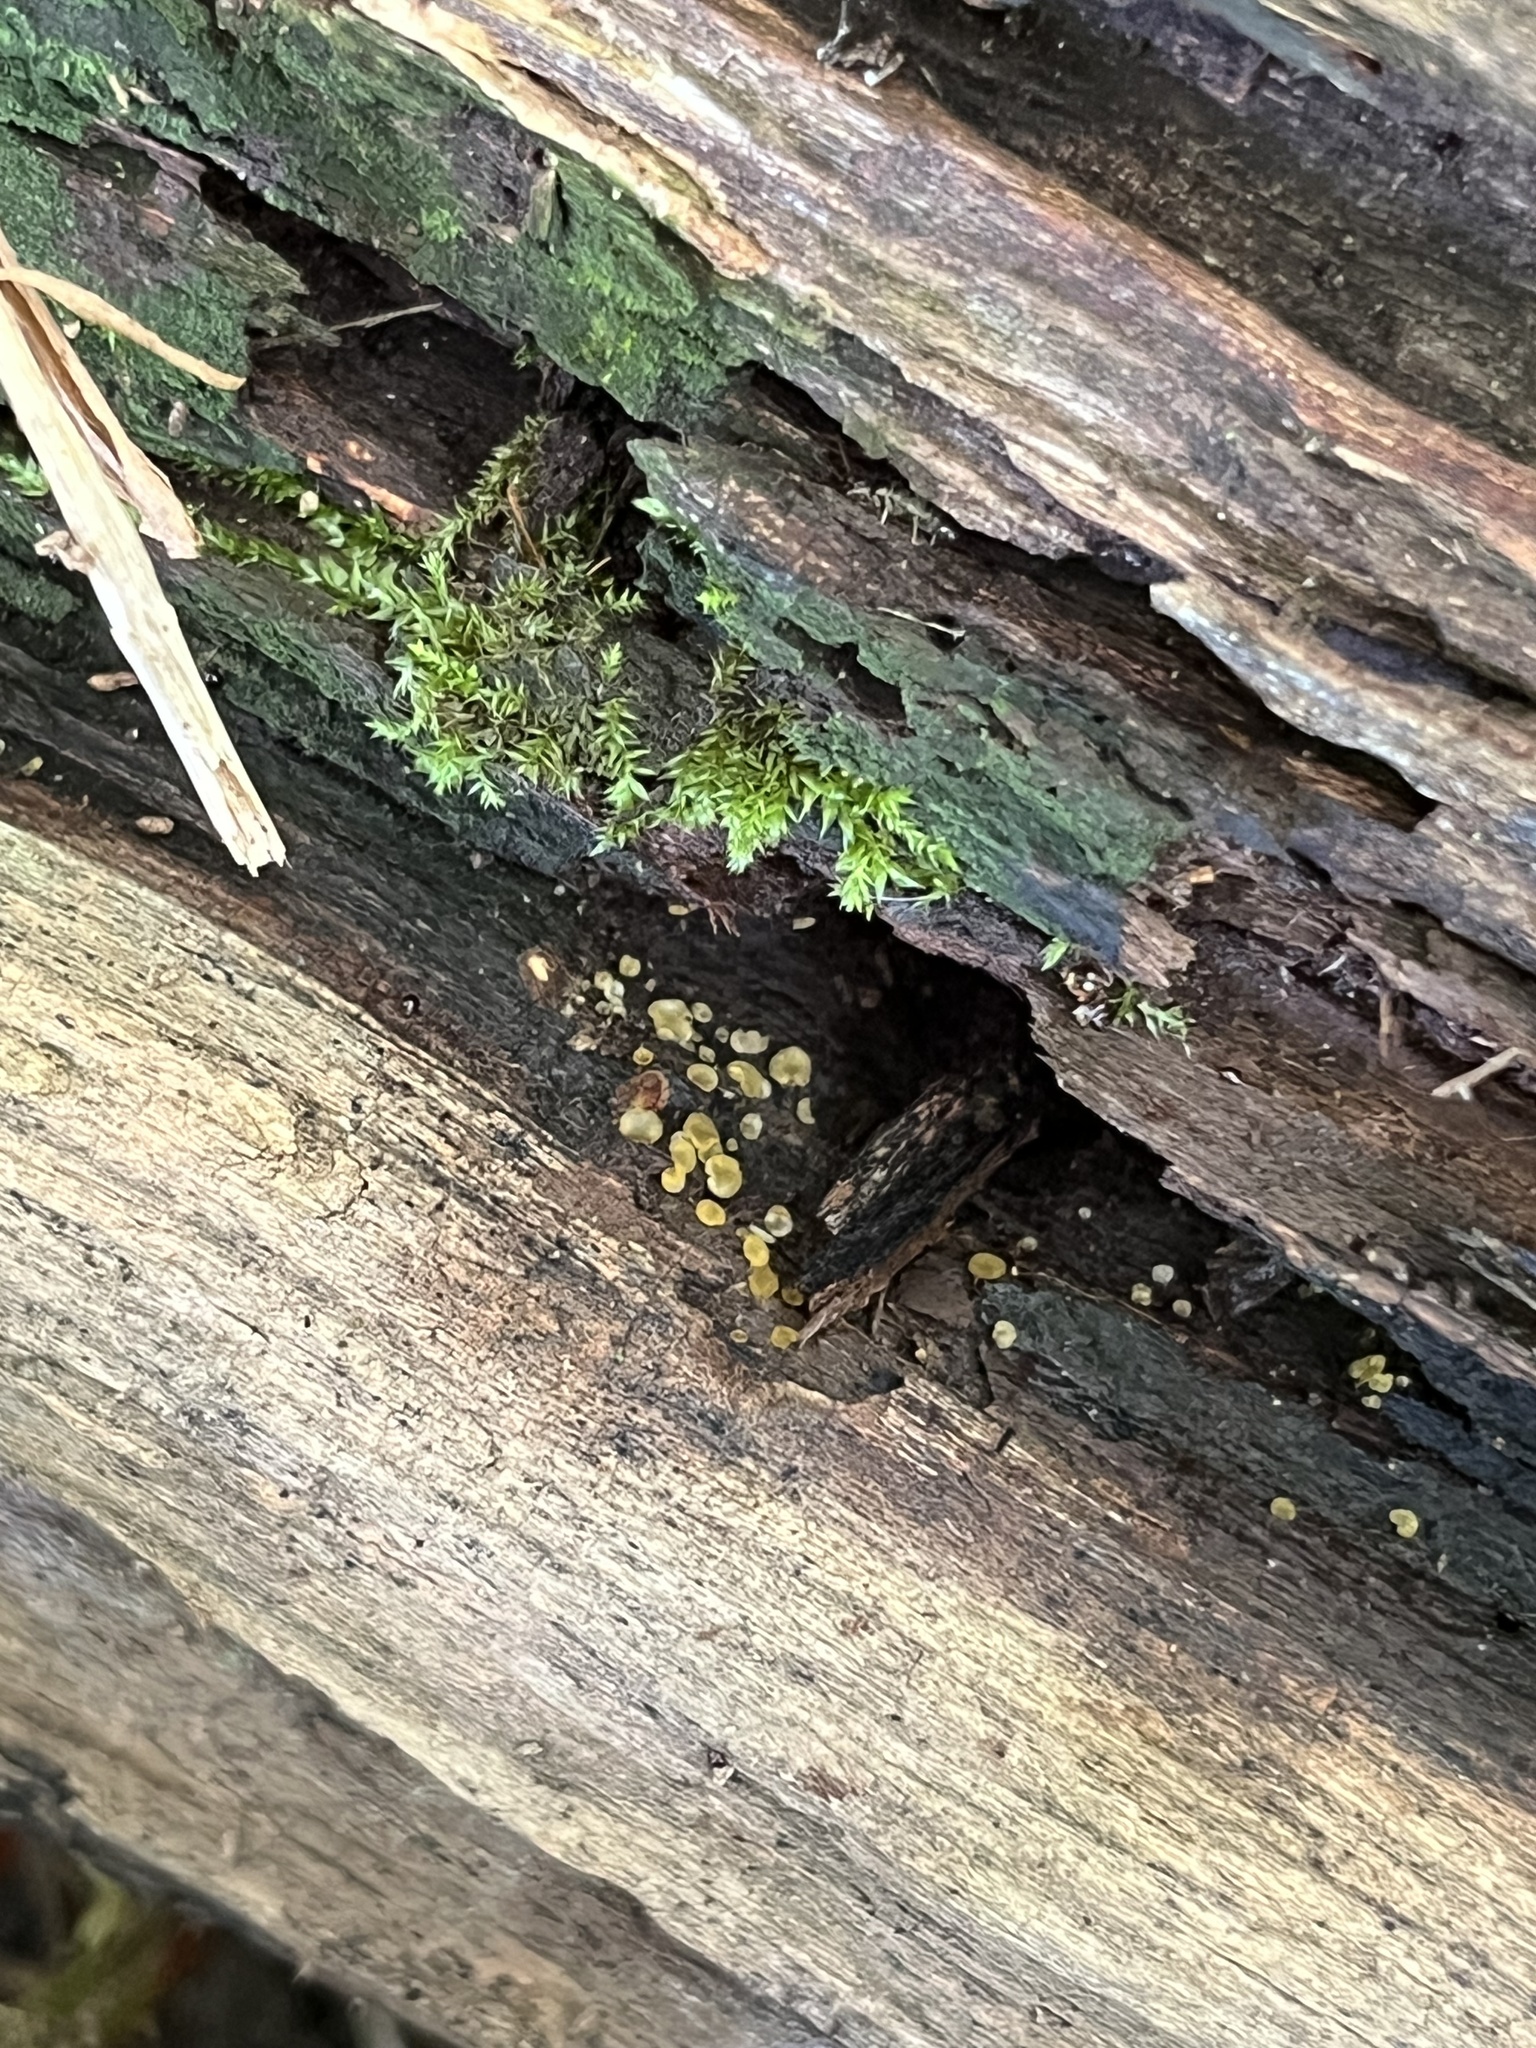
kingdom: Fungi
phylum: Ascomycota
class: Leotiomycetes
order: Helotiales
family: Pezizellaceae
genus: Calycina
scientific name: Calycina citrina
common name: Yellow fairy cups
